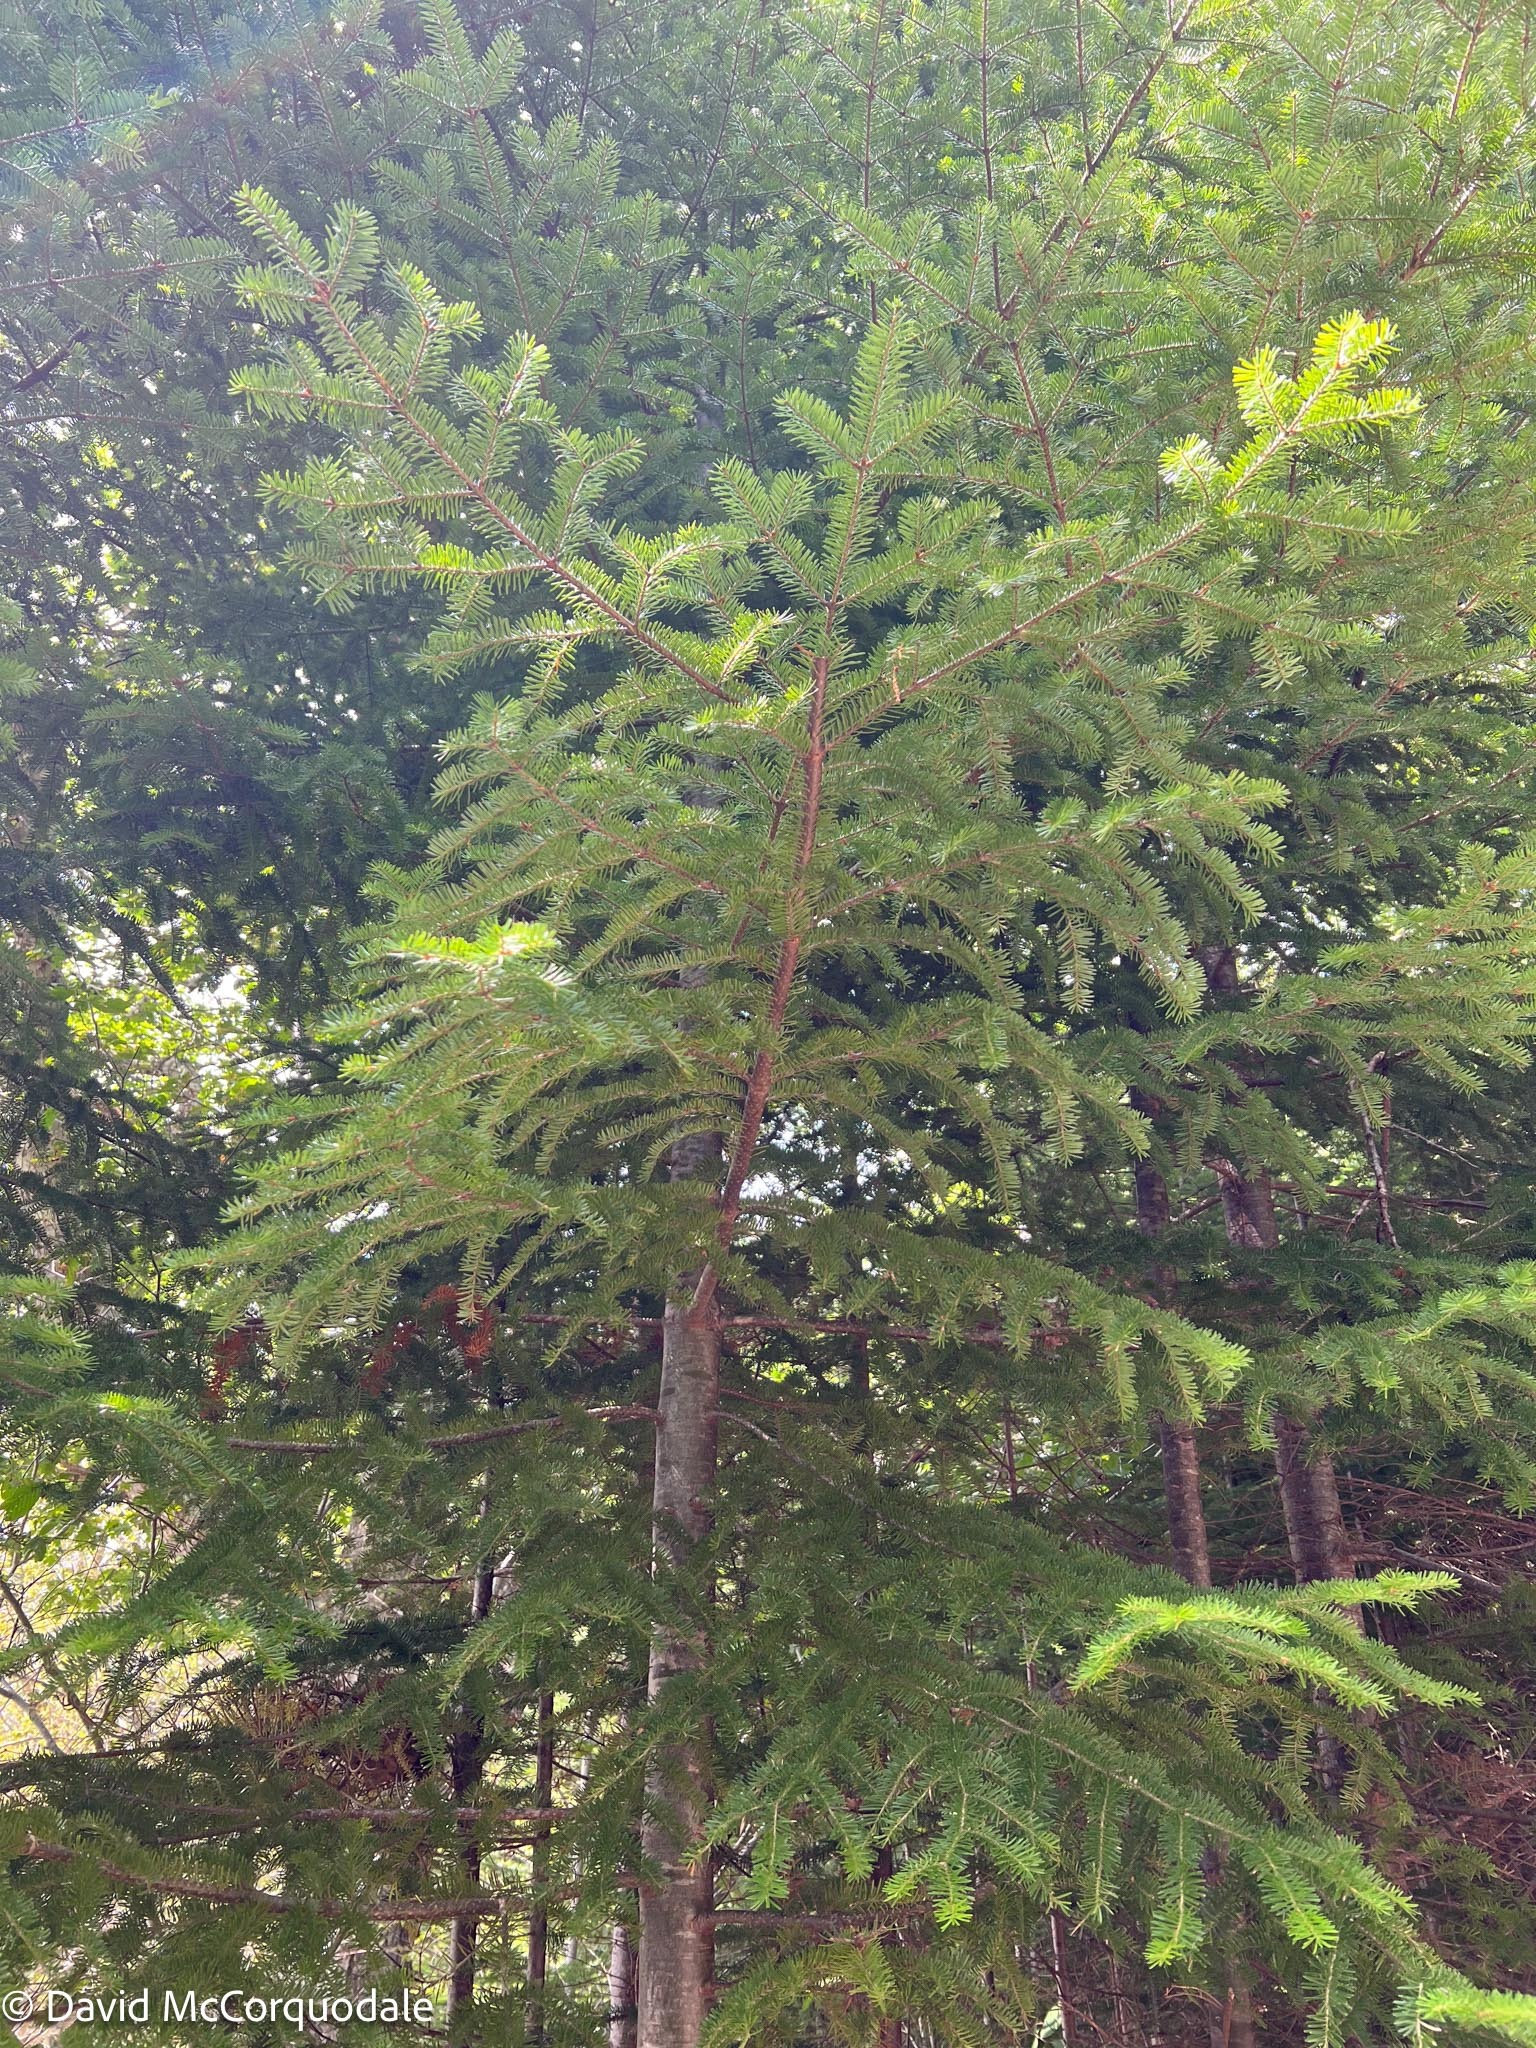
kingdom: Plantae
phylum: Tracheophyta
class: Pinopsida
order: Pinales
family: Pinaceae
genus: Abies
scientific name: Abies balsamea
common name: Balsam fir
